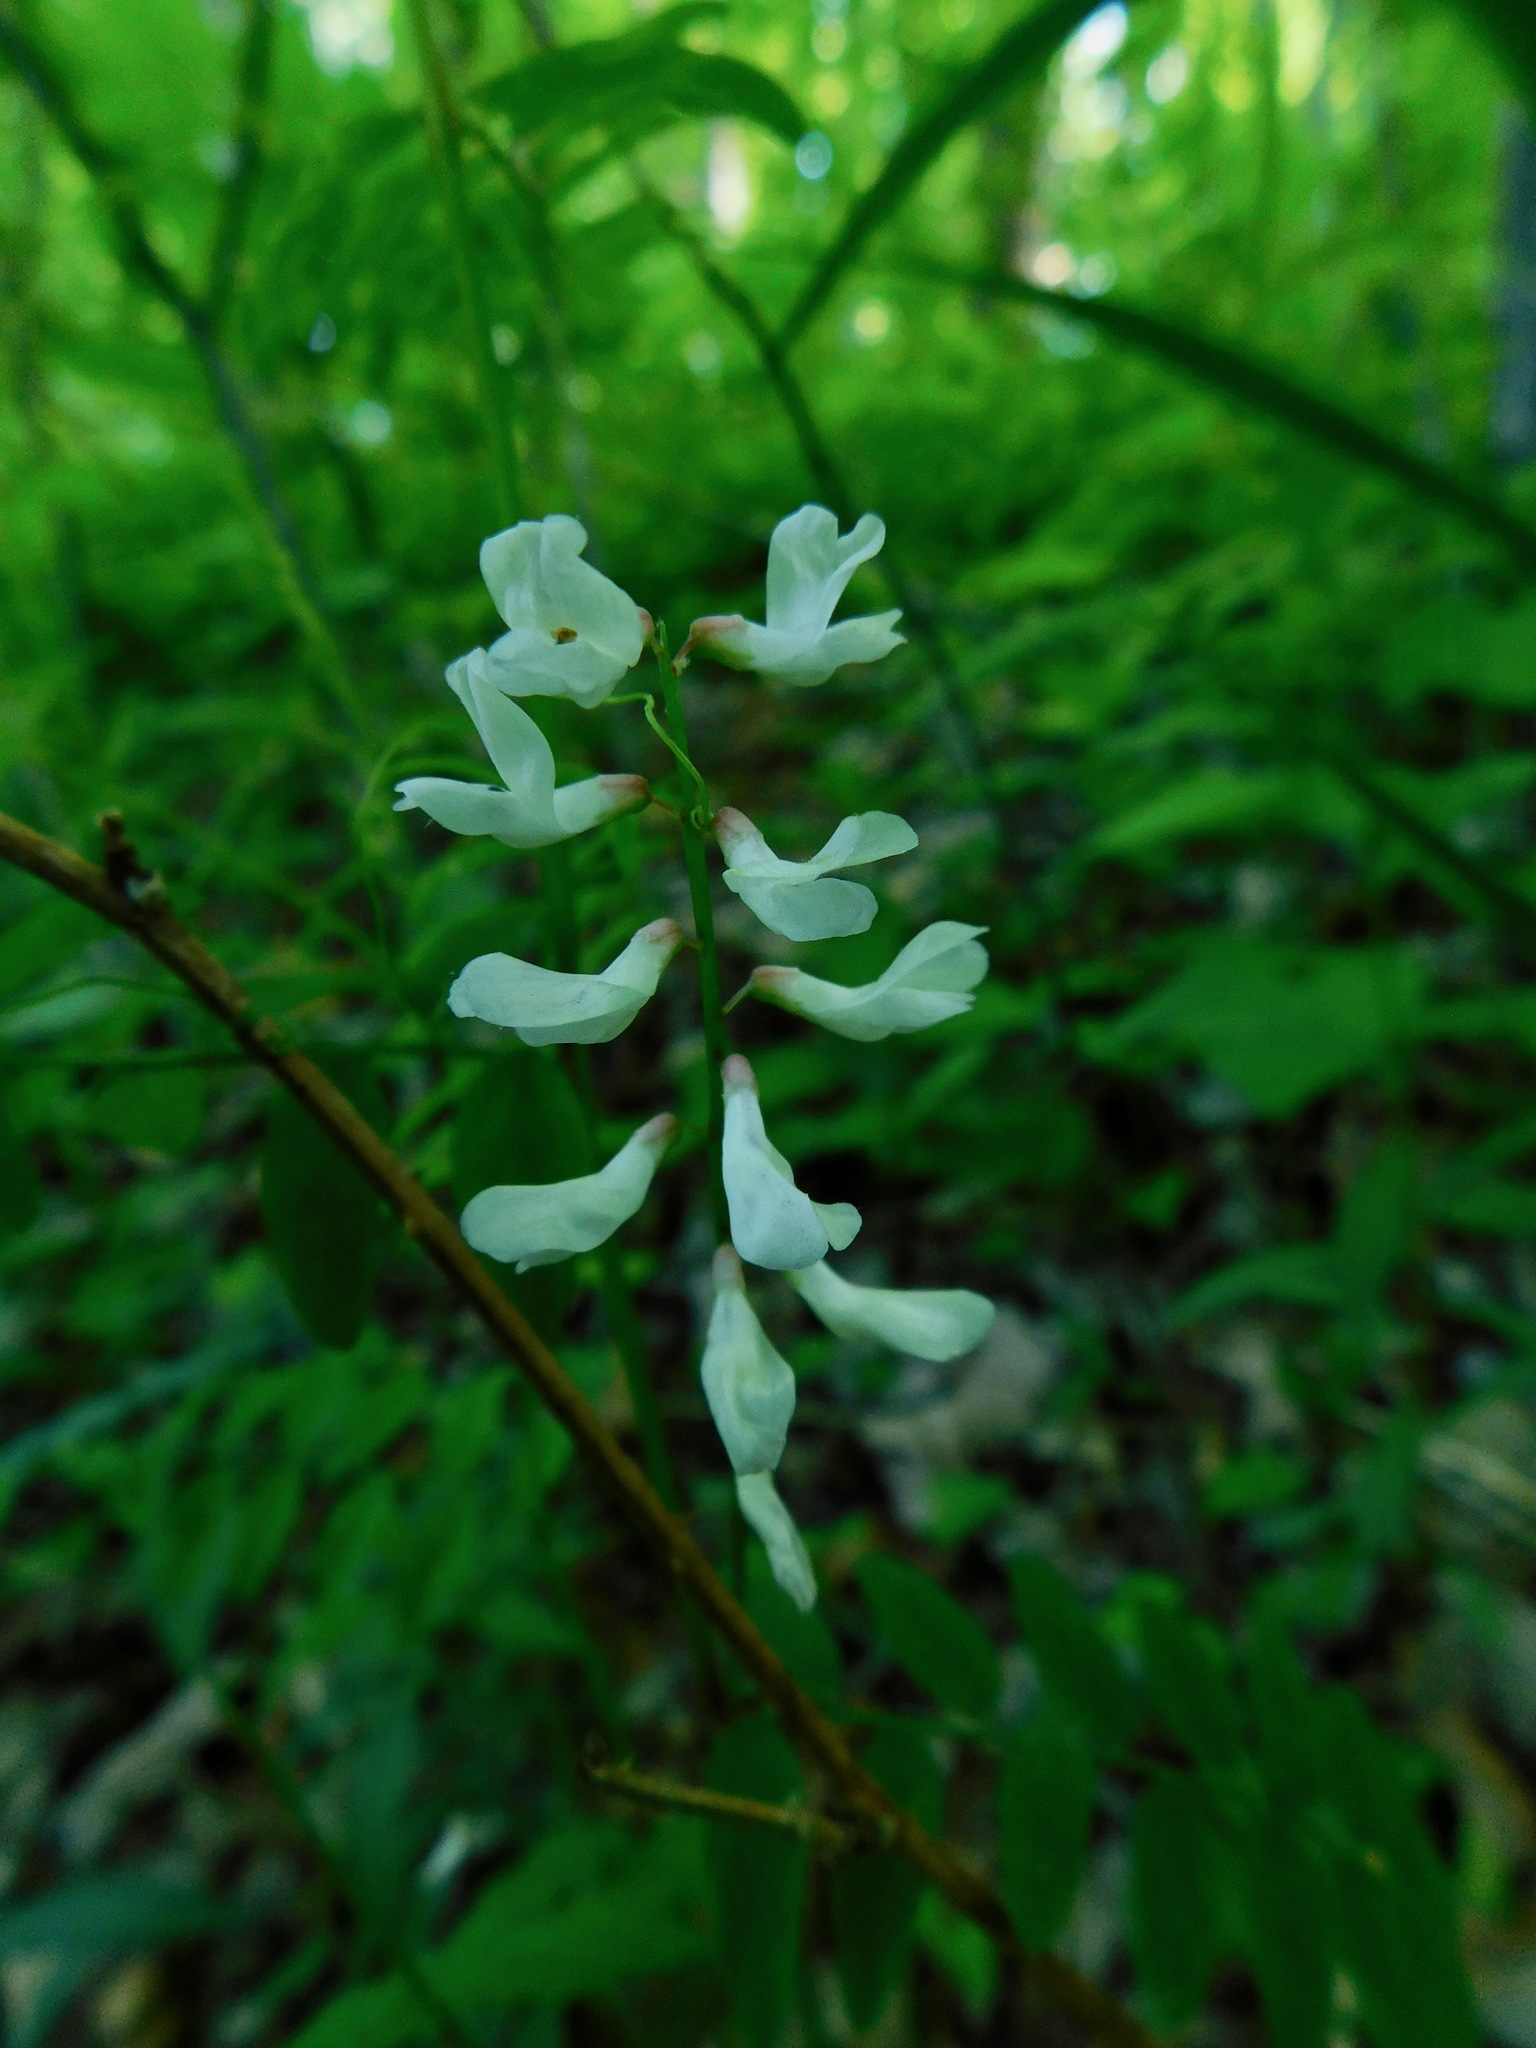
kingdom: Plantae
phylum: Tracheophyta
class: Magnoliopsida
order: Fabales
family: Fabaceae
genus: Vicia
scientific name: Vicia caroliniana
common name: Carolina vetch
